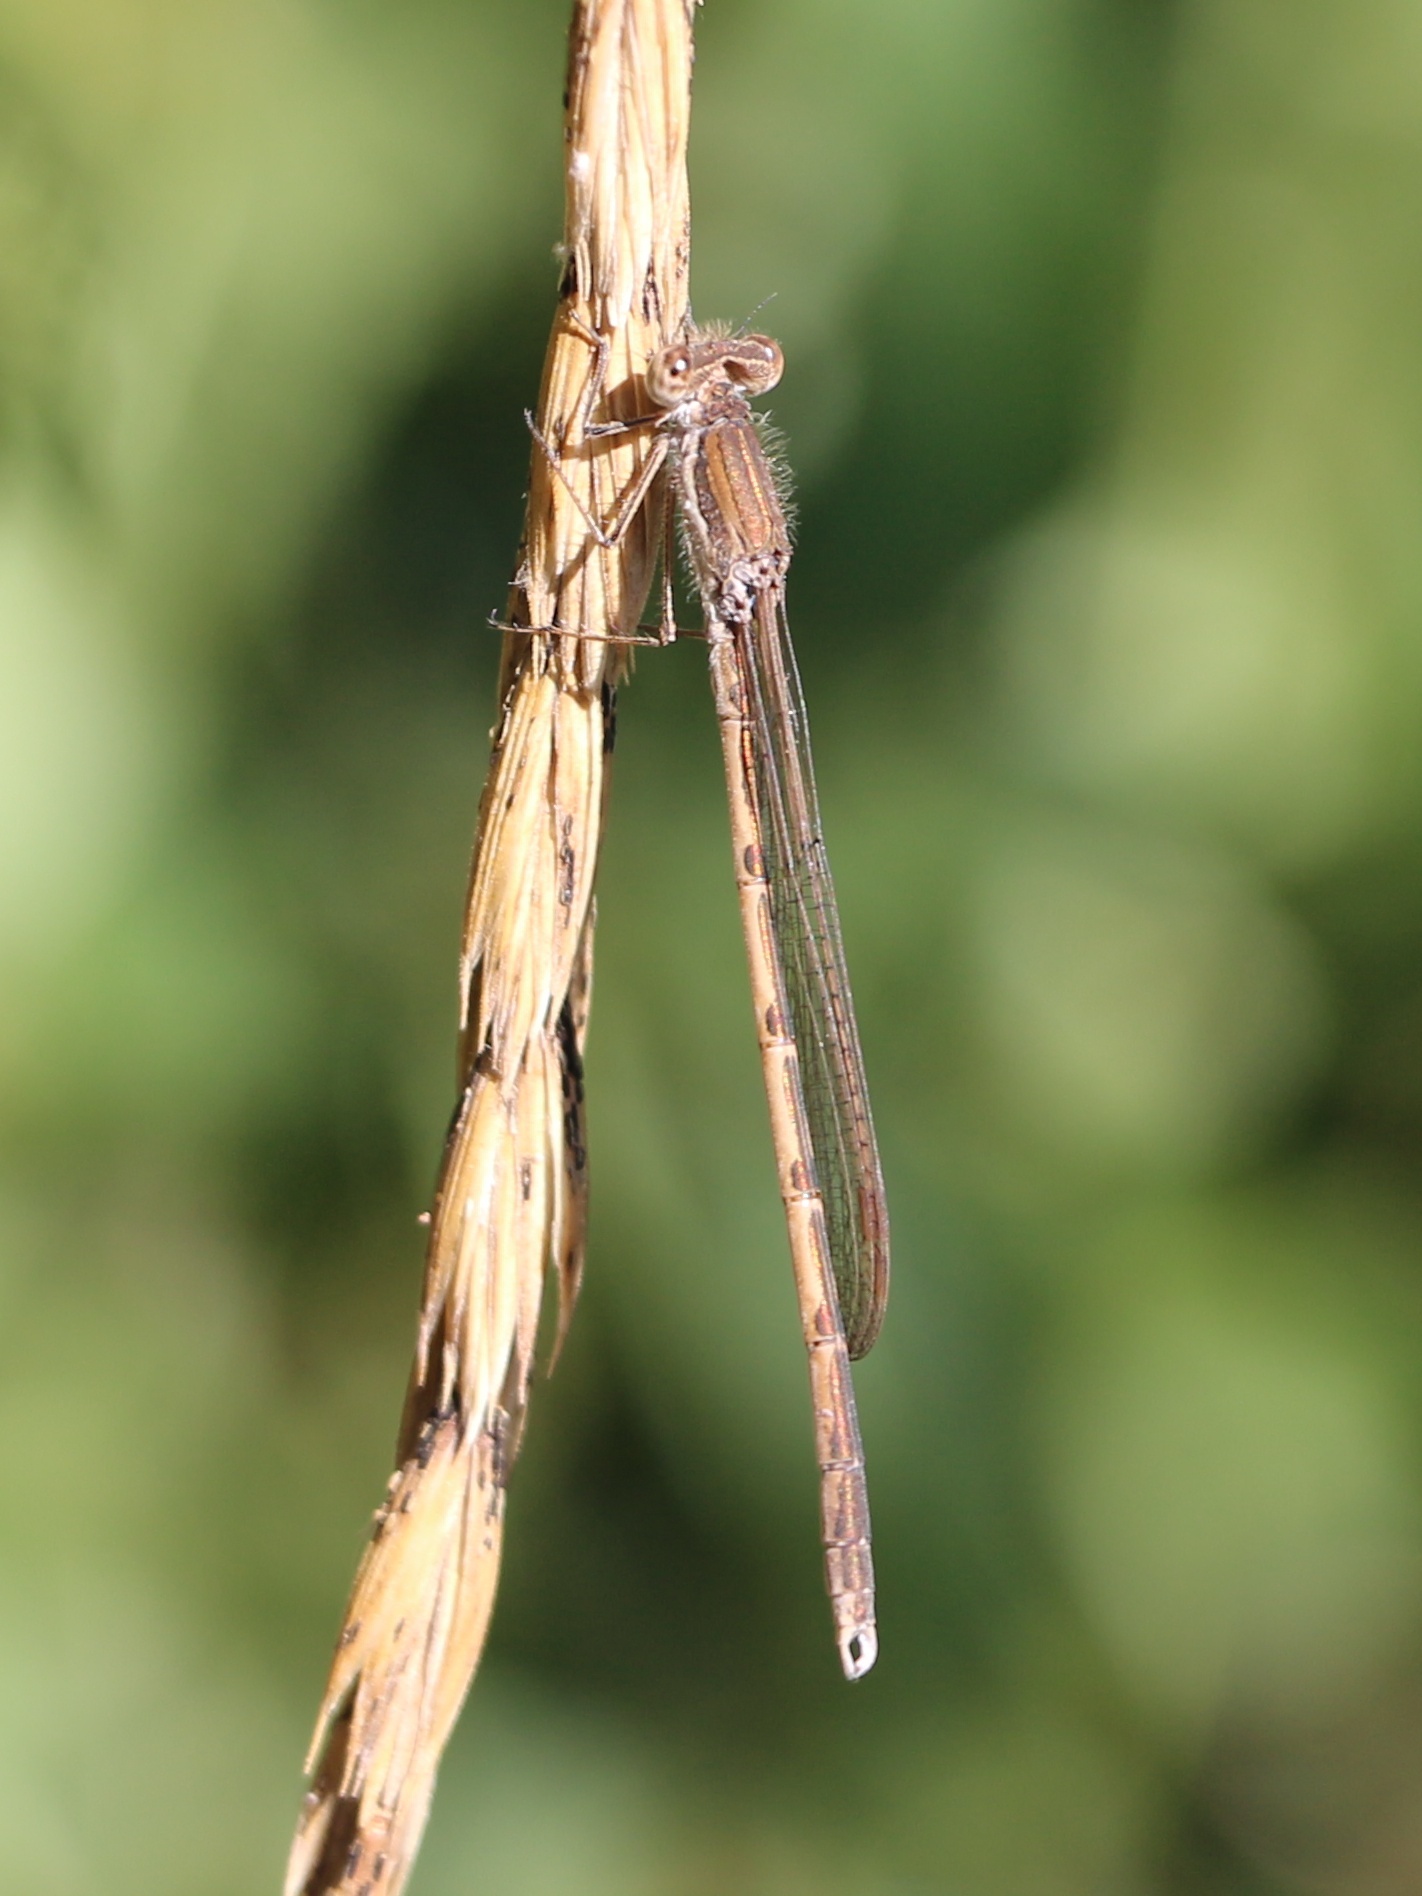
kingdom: Animalia
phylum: Arthropoda
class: Insecta
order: Odonata
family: Lestidae
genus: Sympecma
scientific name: Sympecma fusca
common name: Common winter damsel
